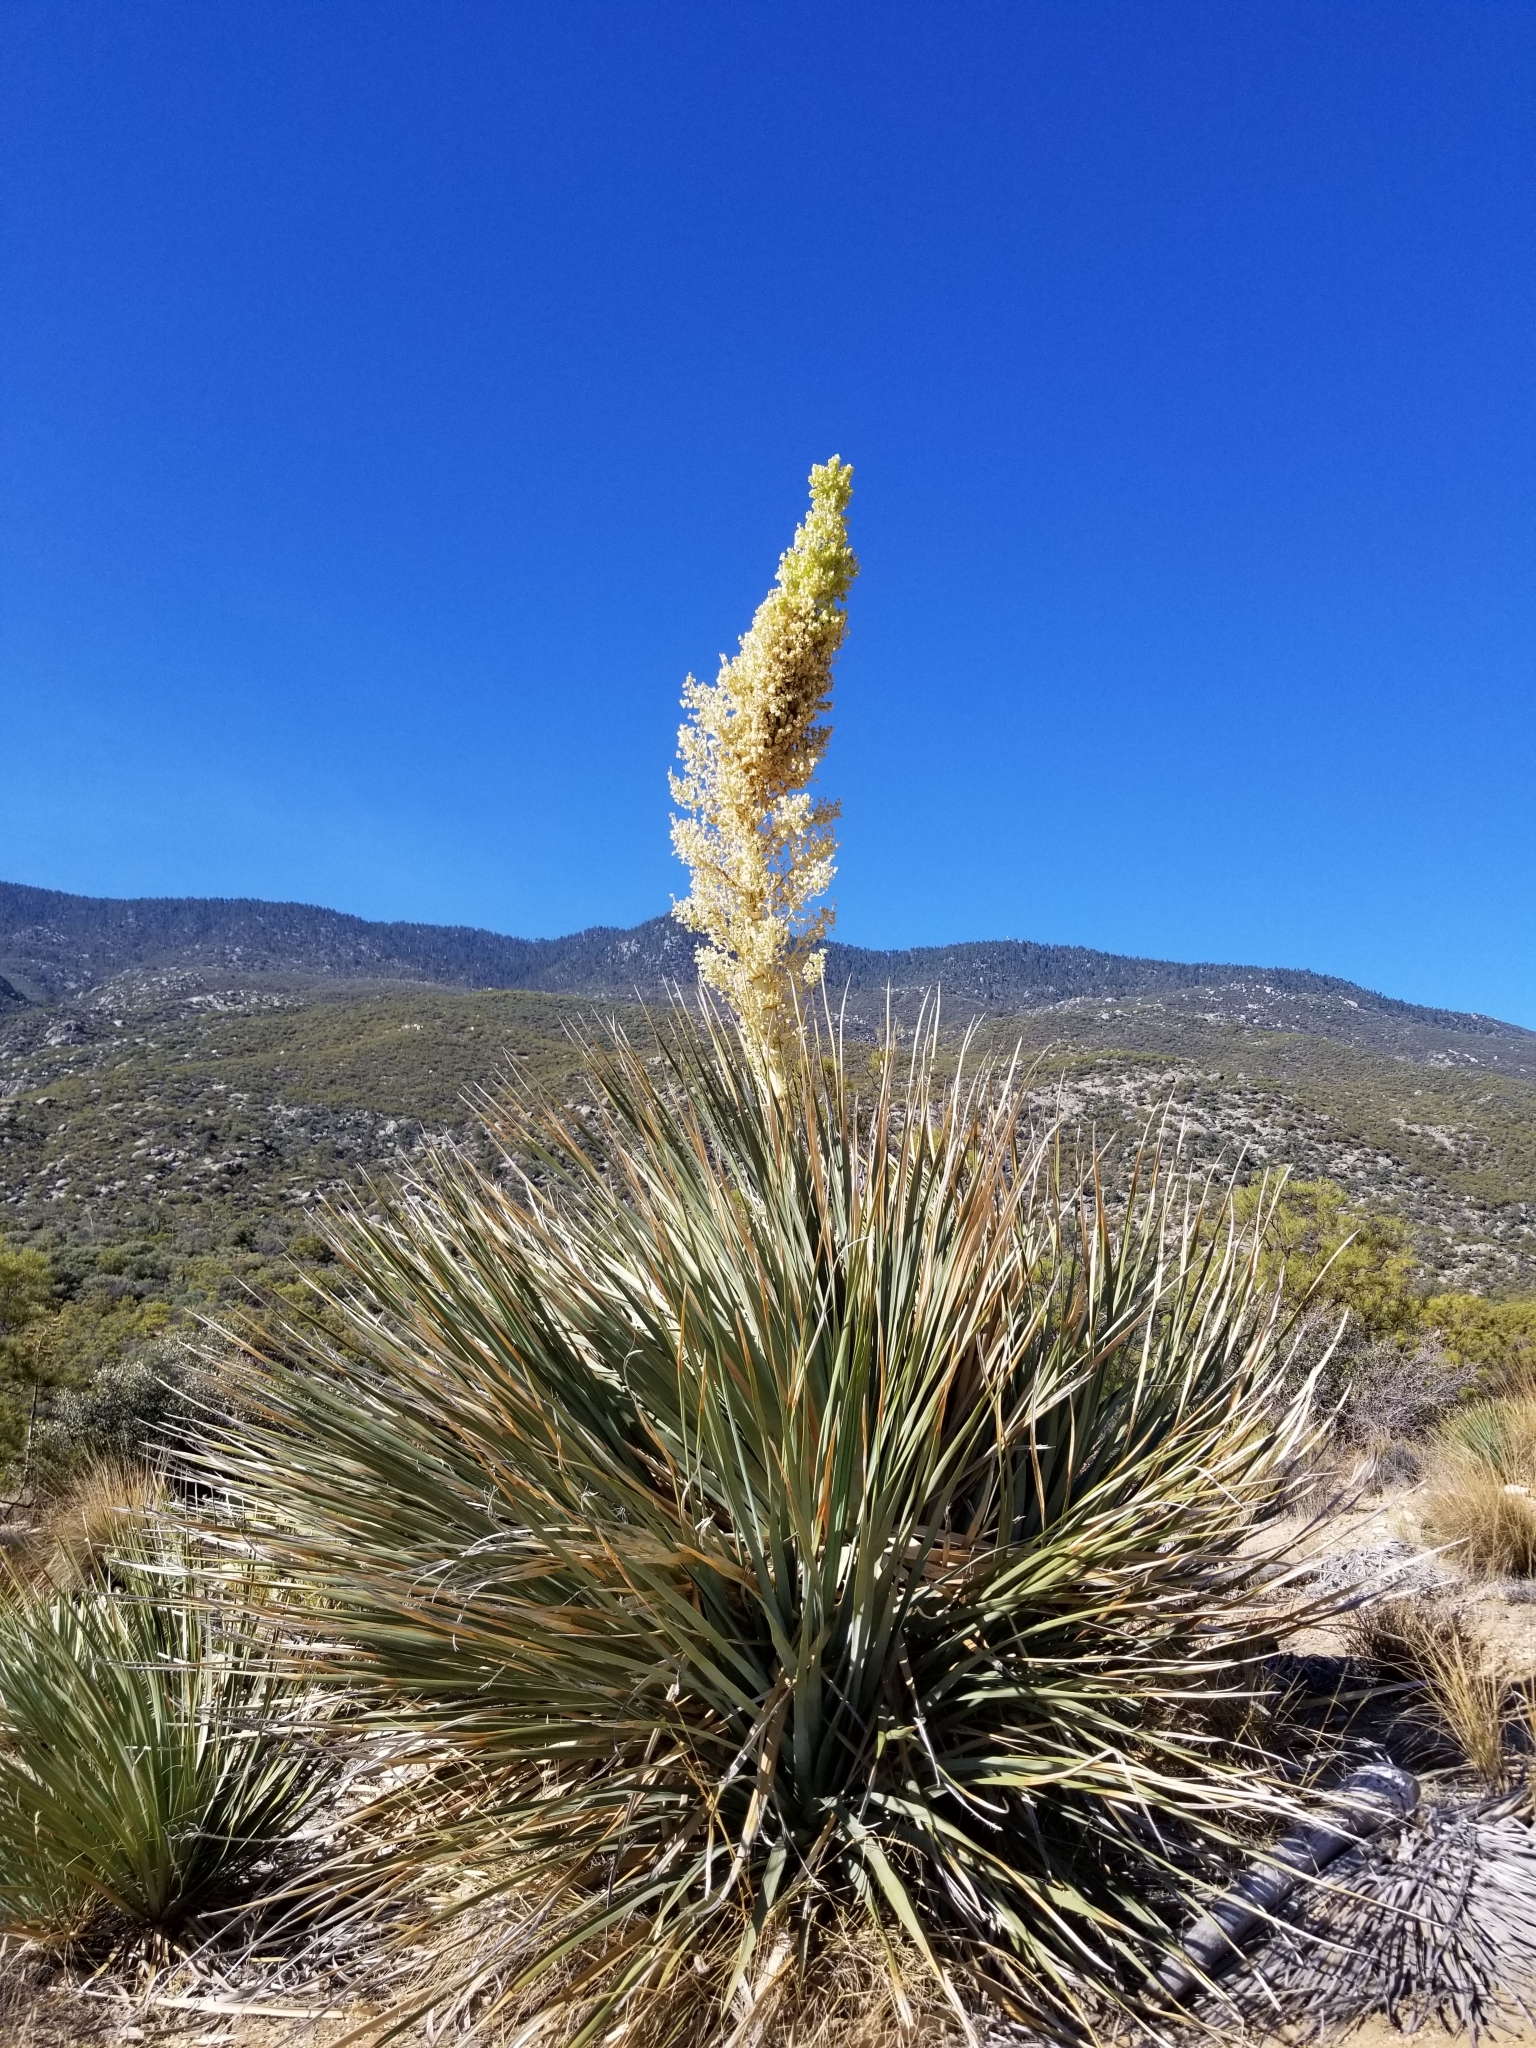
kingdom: Plantae
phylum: Tracheophyta
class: Liliopsida
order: Asparagales
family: Asparagaceae
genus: Nolina
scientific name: Nolina parryi
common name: Parry nolina
